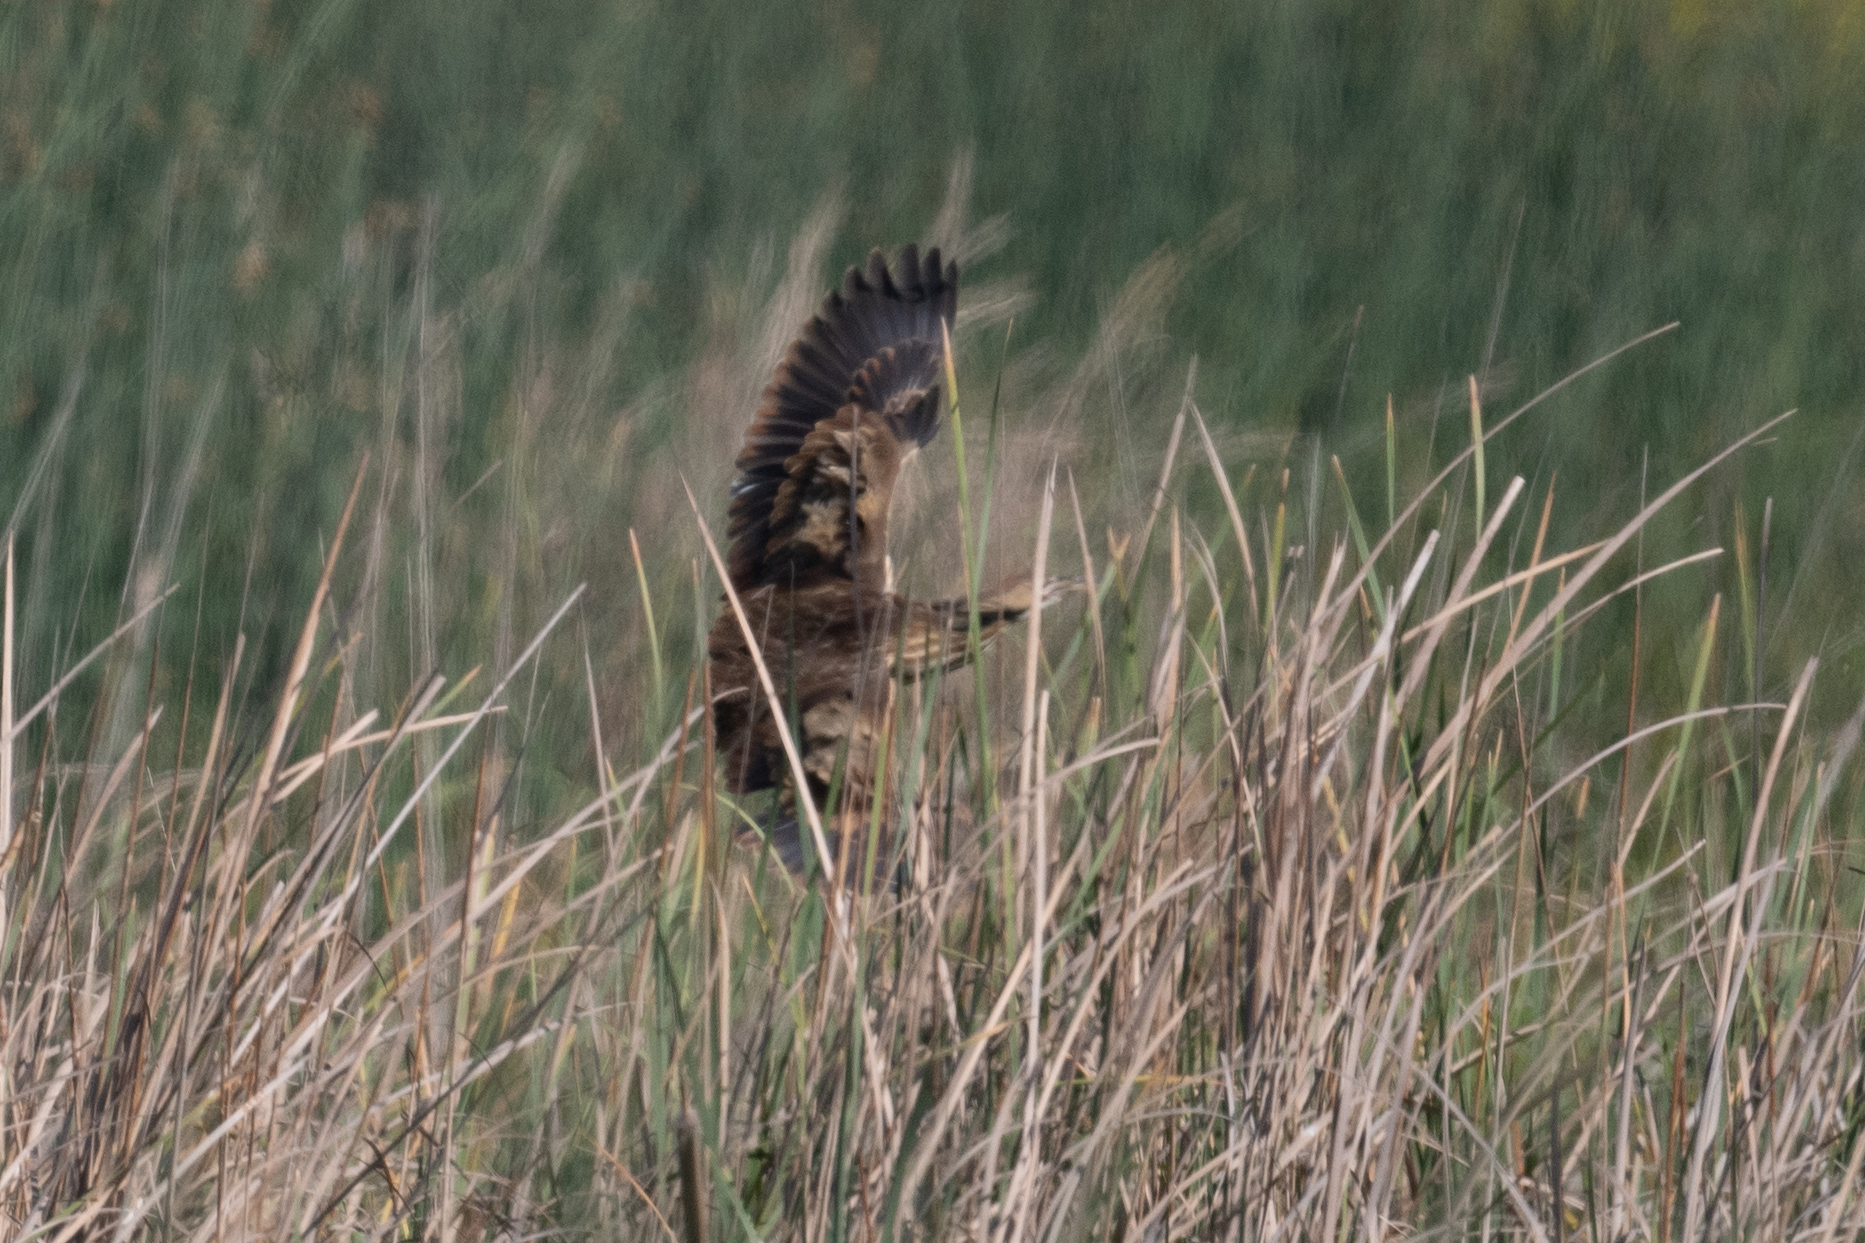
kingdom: Animalia
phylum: Chordata
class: Aves
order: Pelecaniformes
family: Ardeidae
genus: Botaurus
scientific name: Botaurus lentiginosus
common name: American bittern
